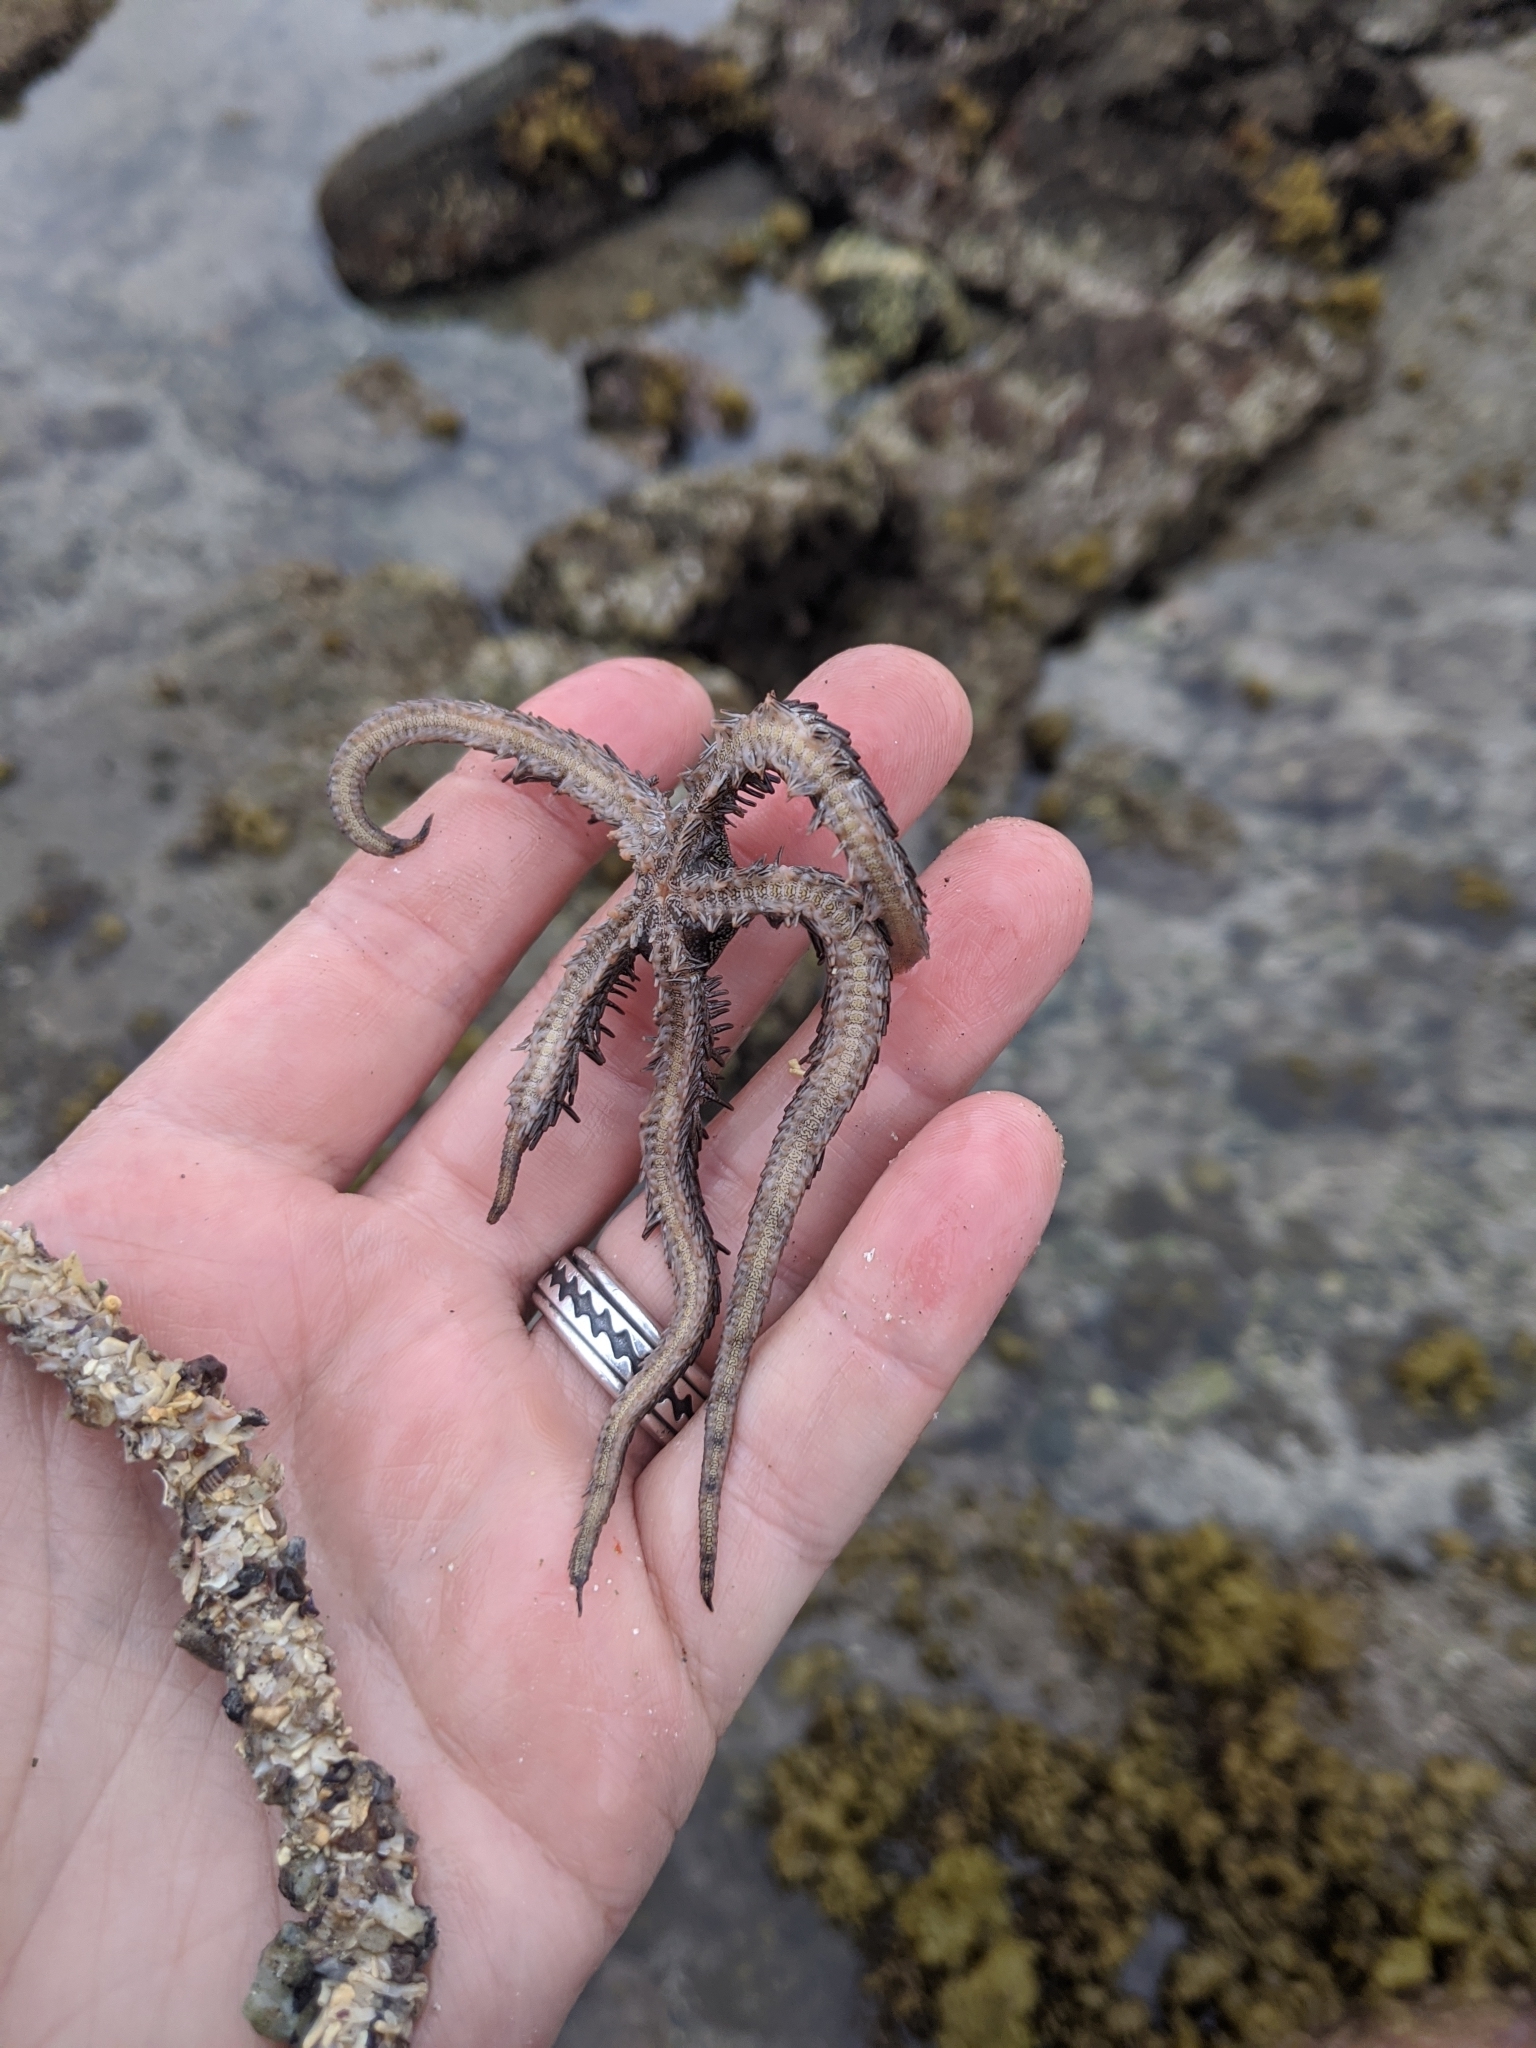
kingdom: Animalia
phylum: Echinodermata
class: Ophiuroidea
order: Ophiacanthida
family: Ophiocomidae
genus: Ophiocoma
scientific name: Ophiocoma aethiops
